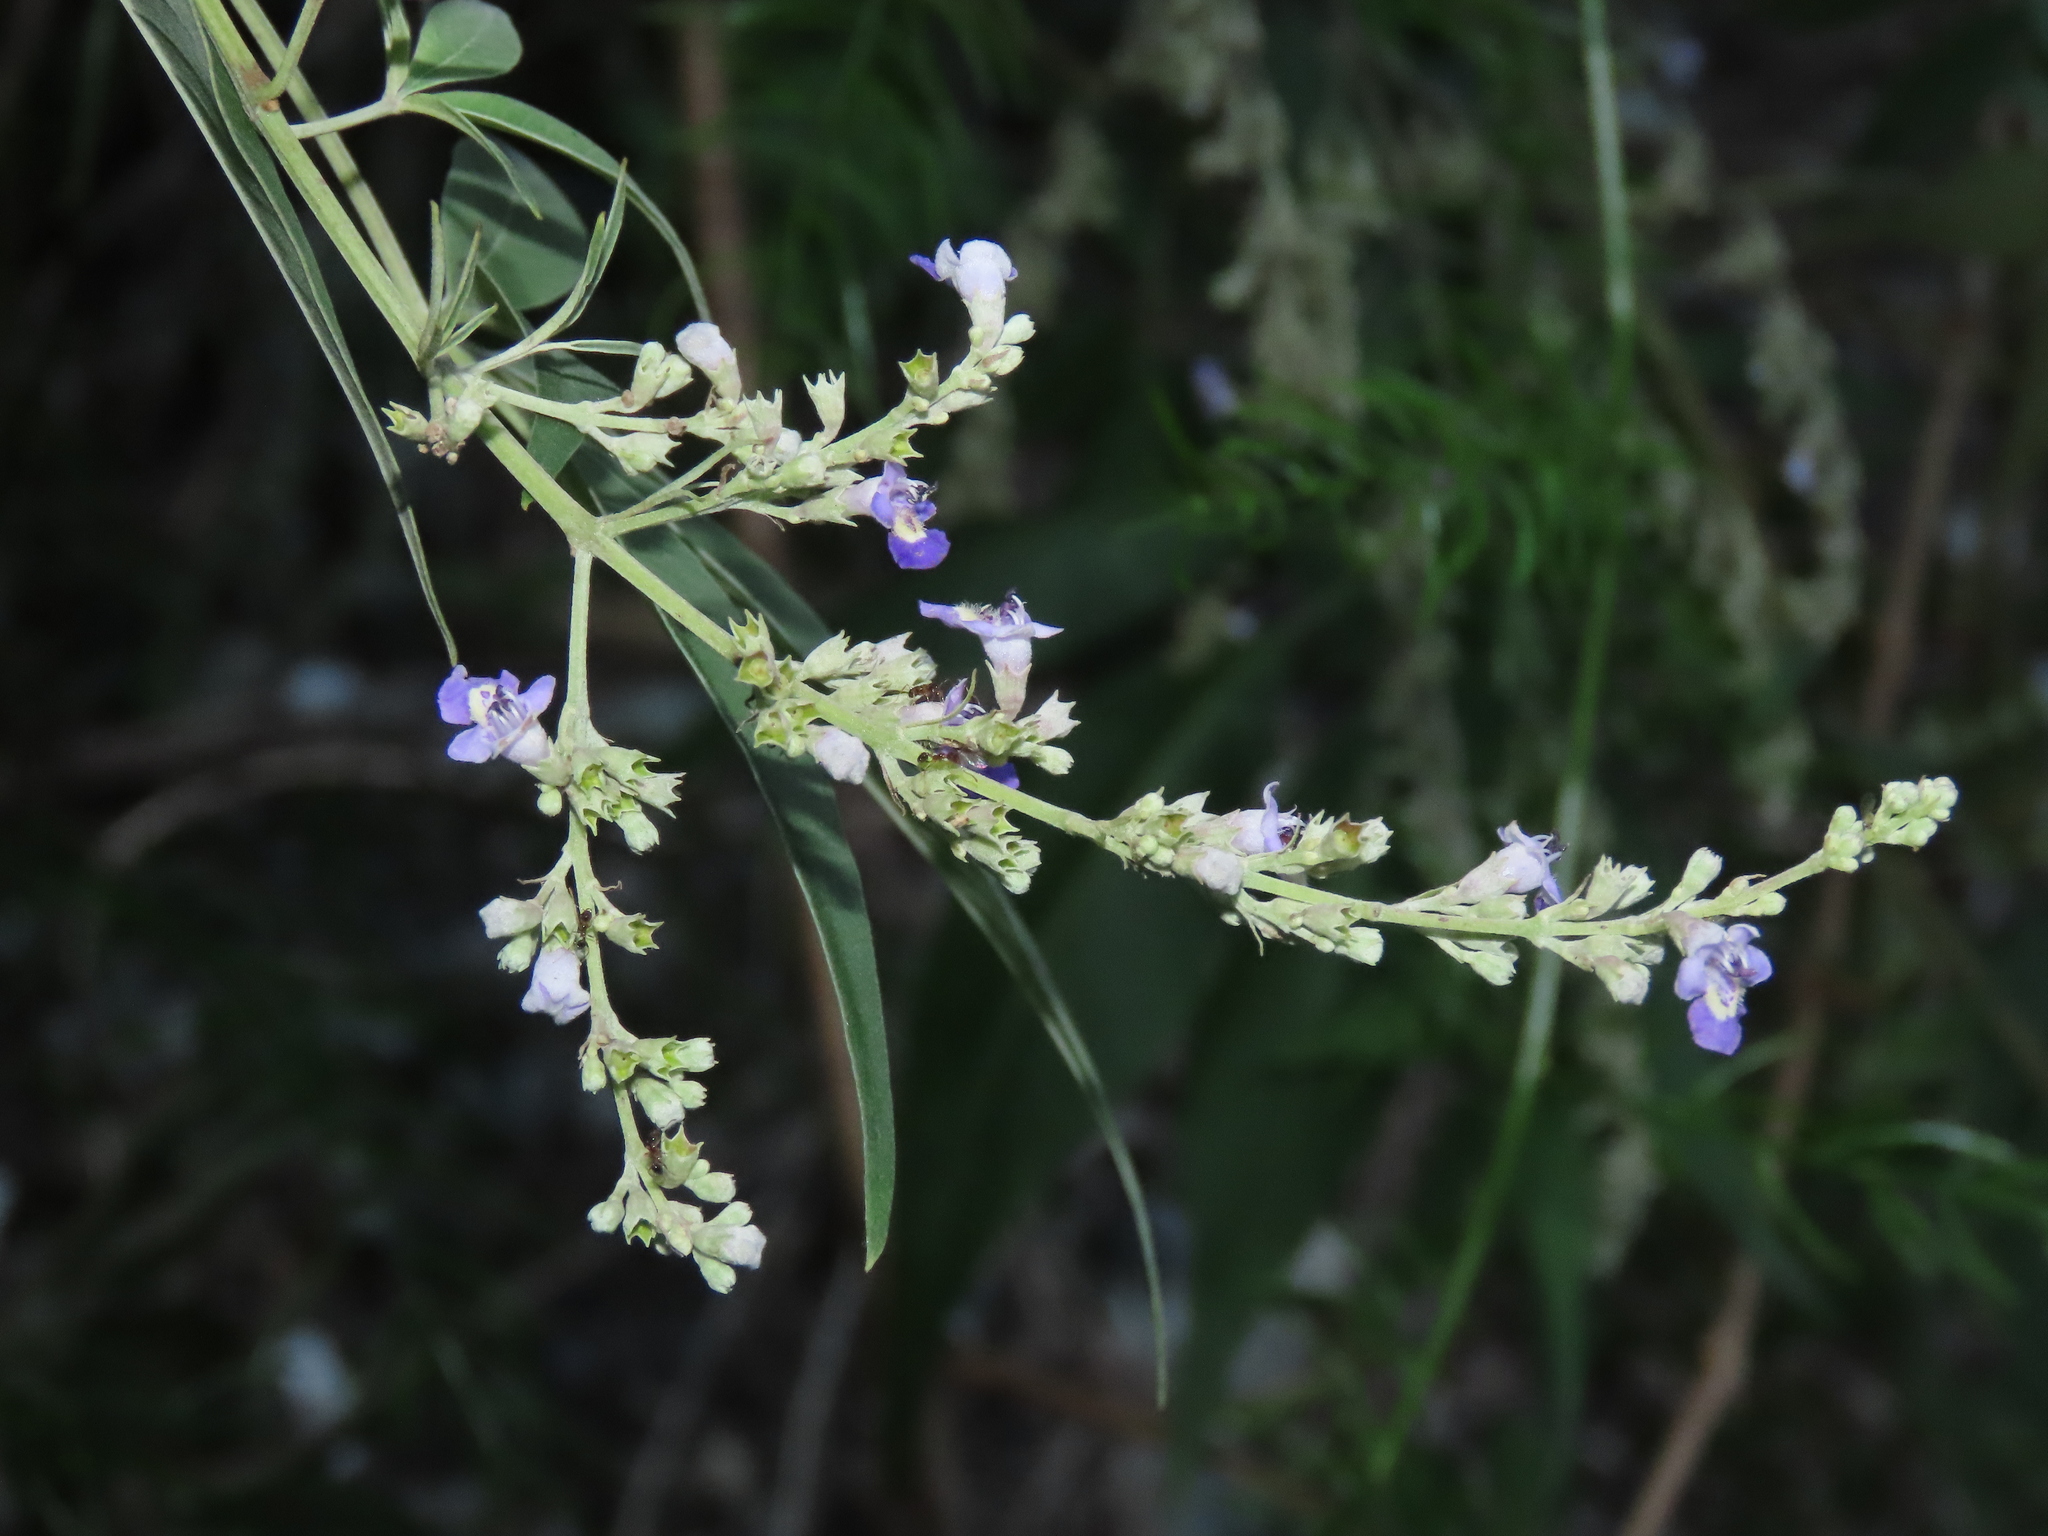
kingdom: Plantae
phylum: Tracheophyta
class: Magnoliopsida
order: Lamiales
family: Lamiaceae
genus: Vitex
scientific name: Vitex negundo
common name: Chinese chastetree
